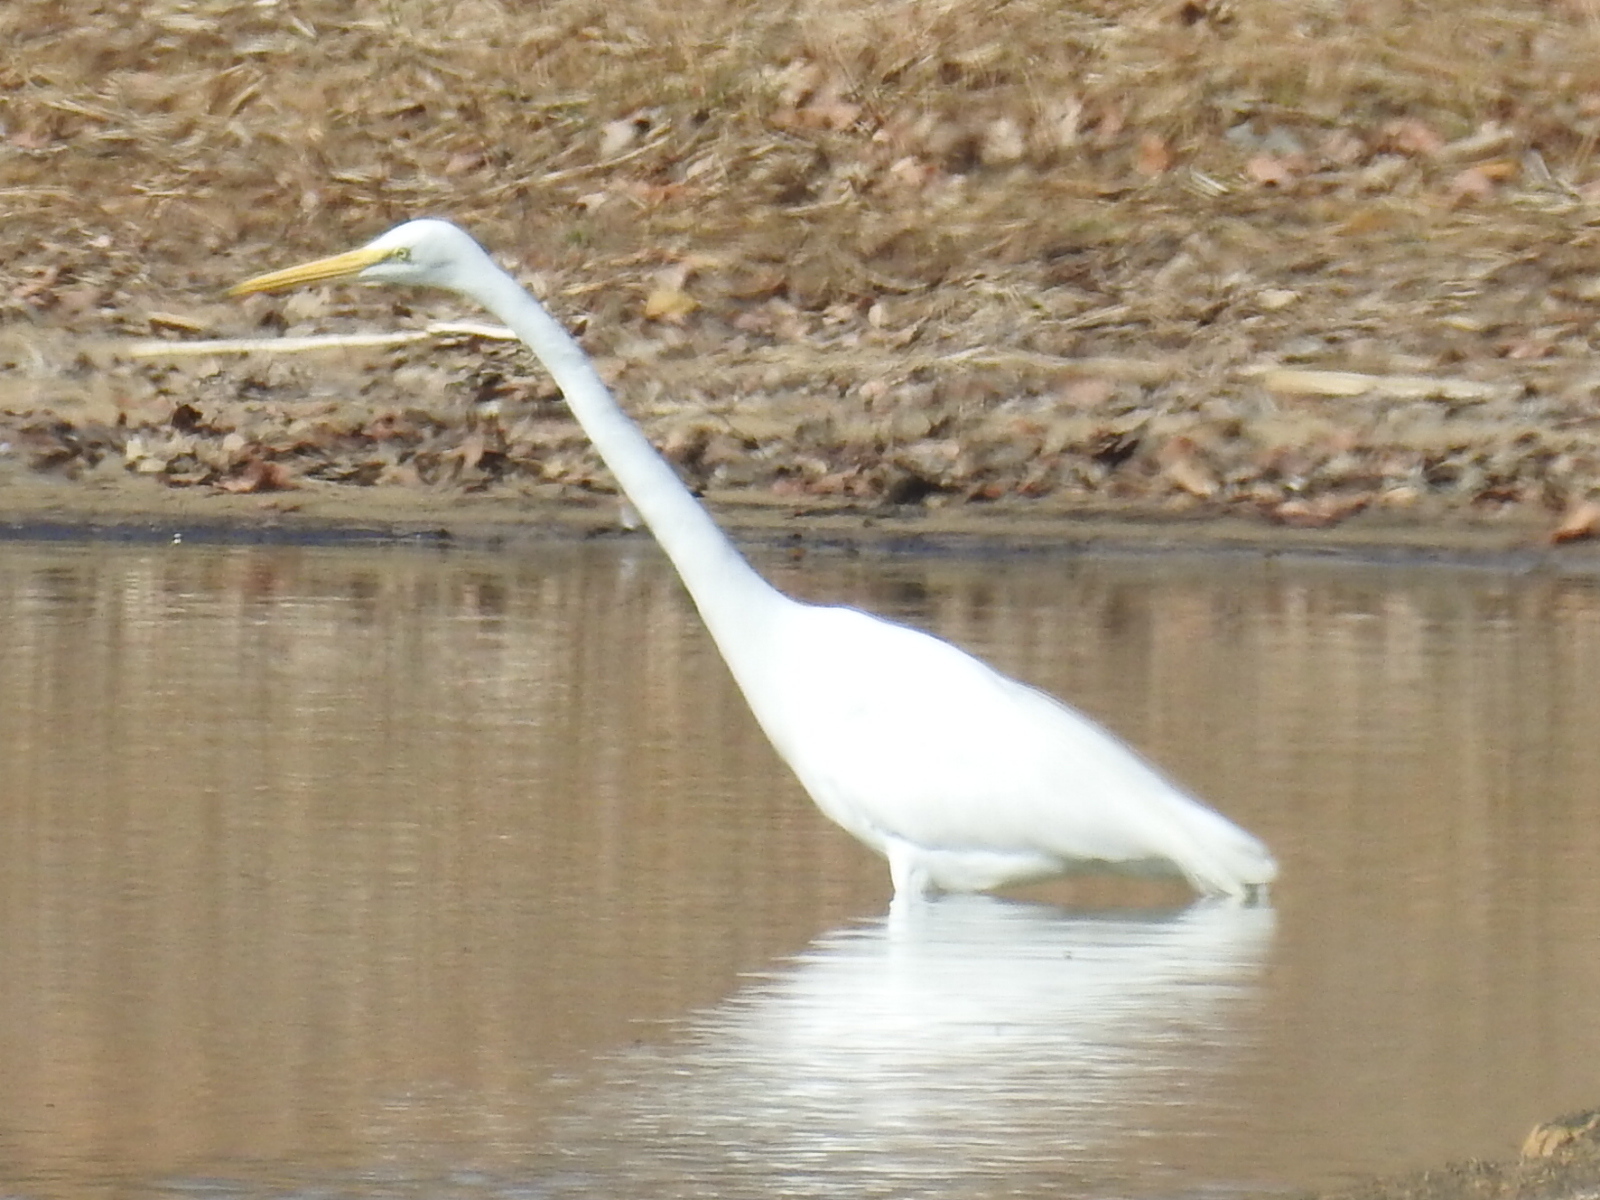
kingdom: Animalia
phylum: Chordata
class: Aves
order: Pelecaniformes
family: Ardeidae
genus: Ardea
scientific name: Ardea alba
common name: Great egret
